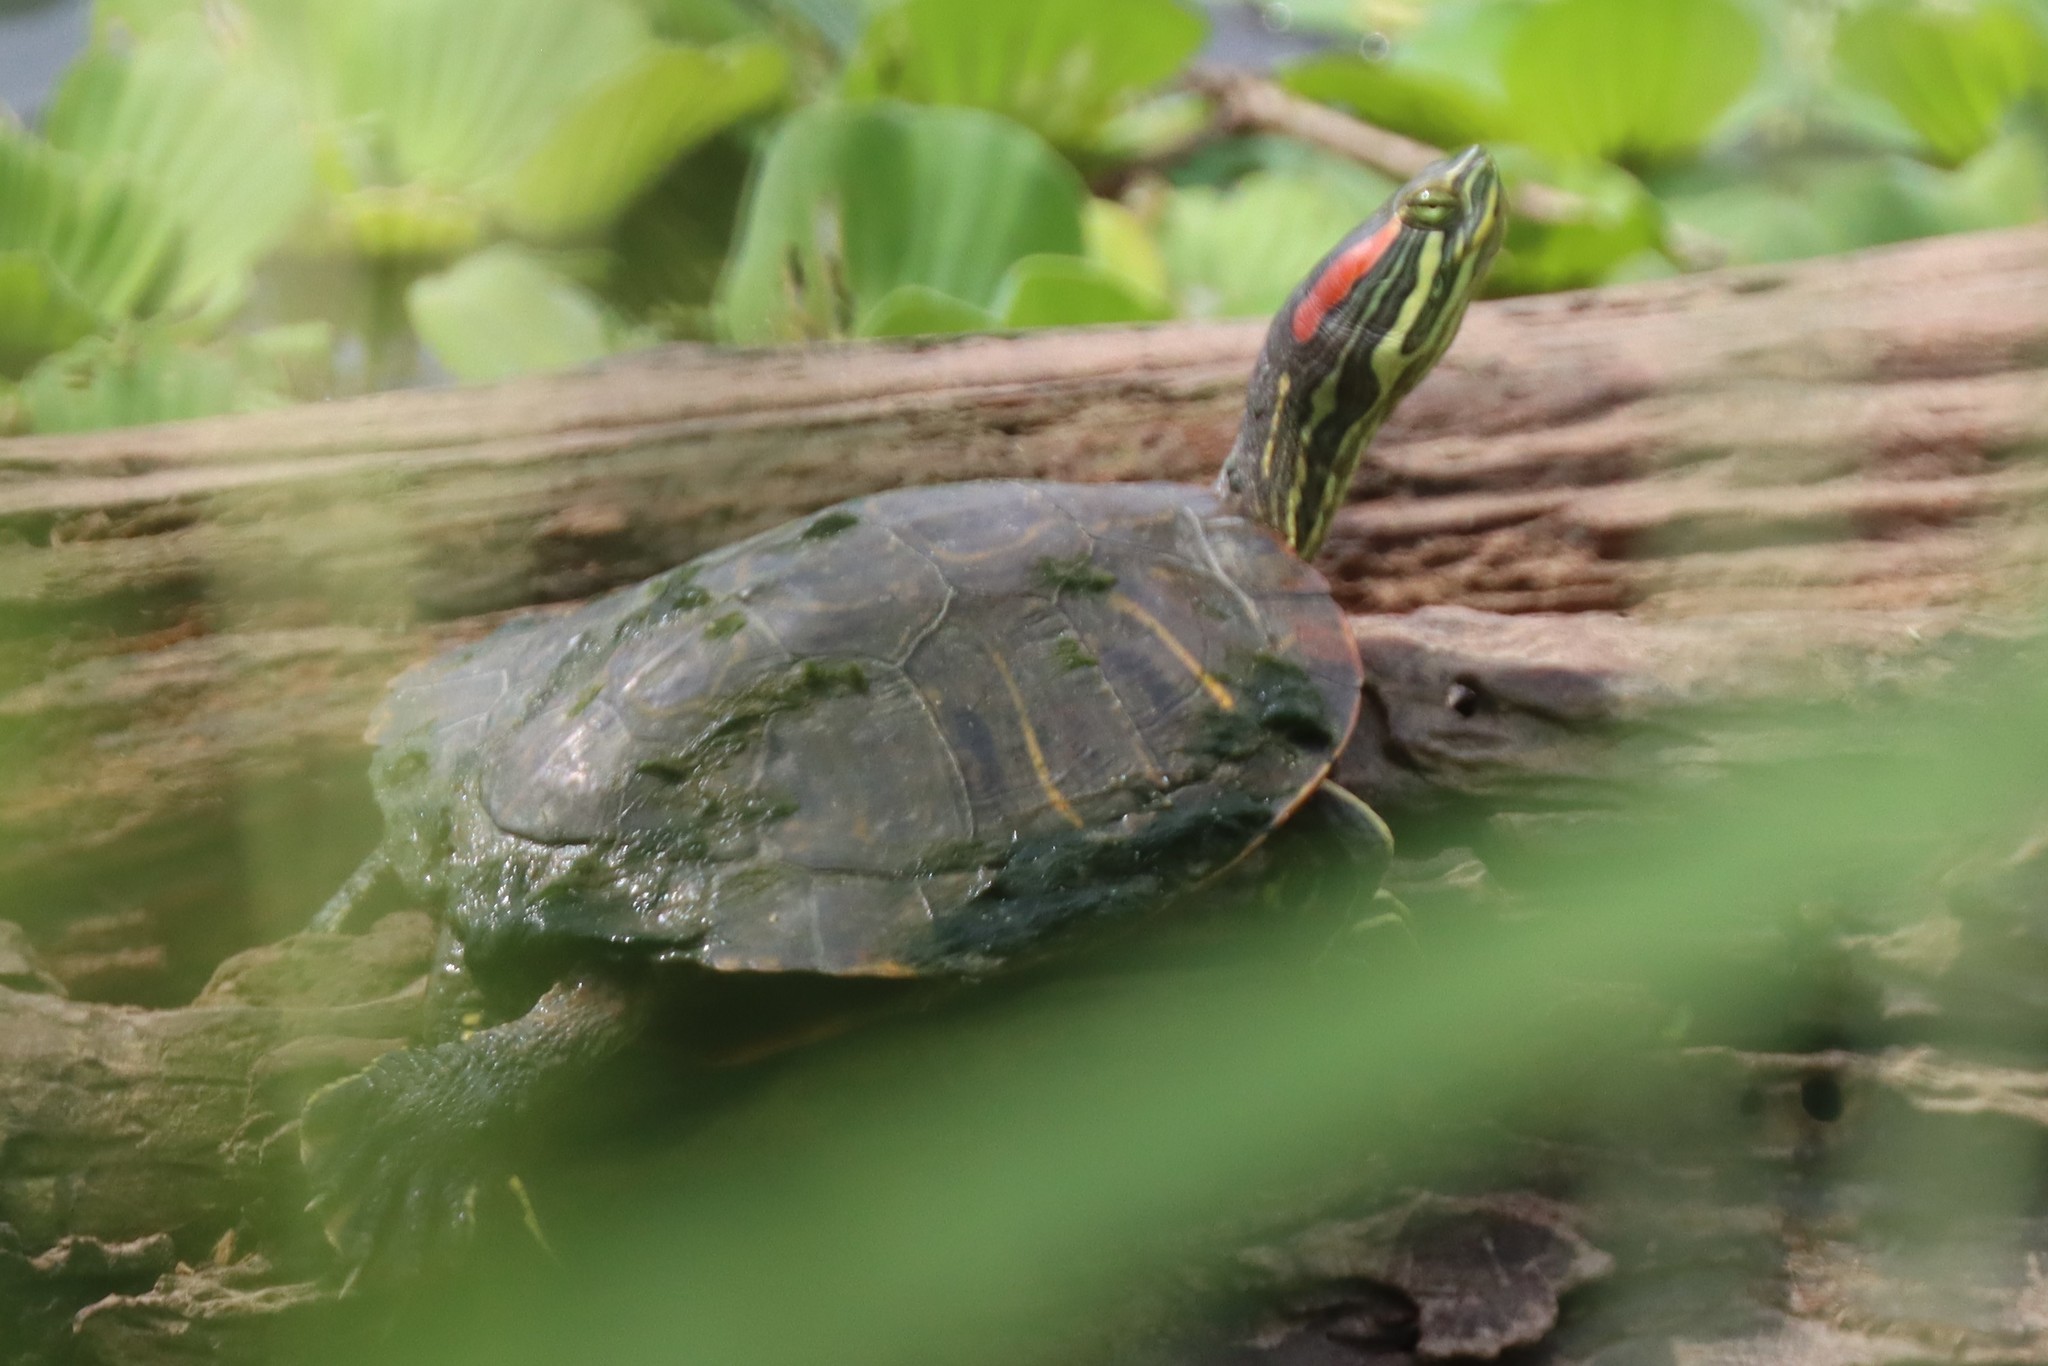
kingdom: Animalia
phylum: Chordata
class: Testudines
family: Emydidae
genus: Trachemys
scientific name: Trachemys scripta
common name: Slider
